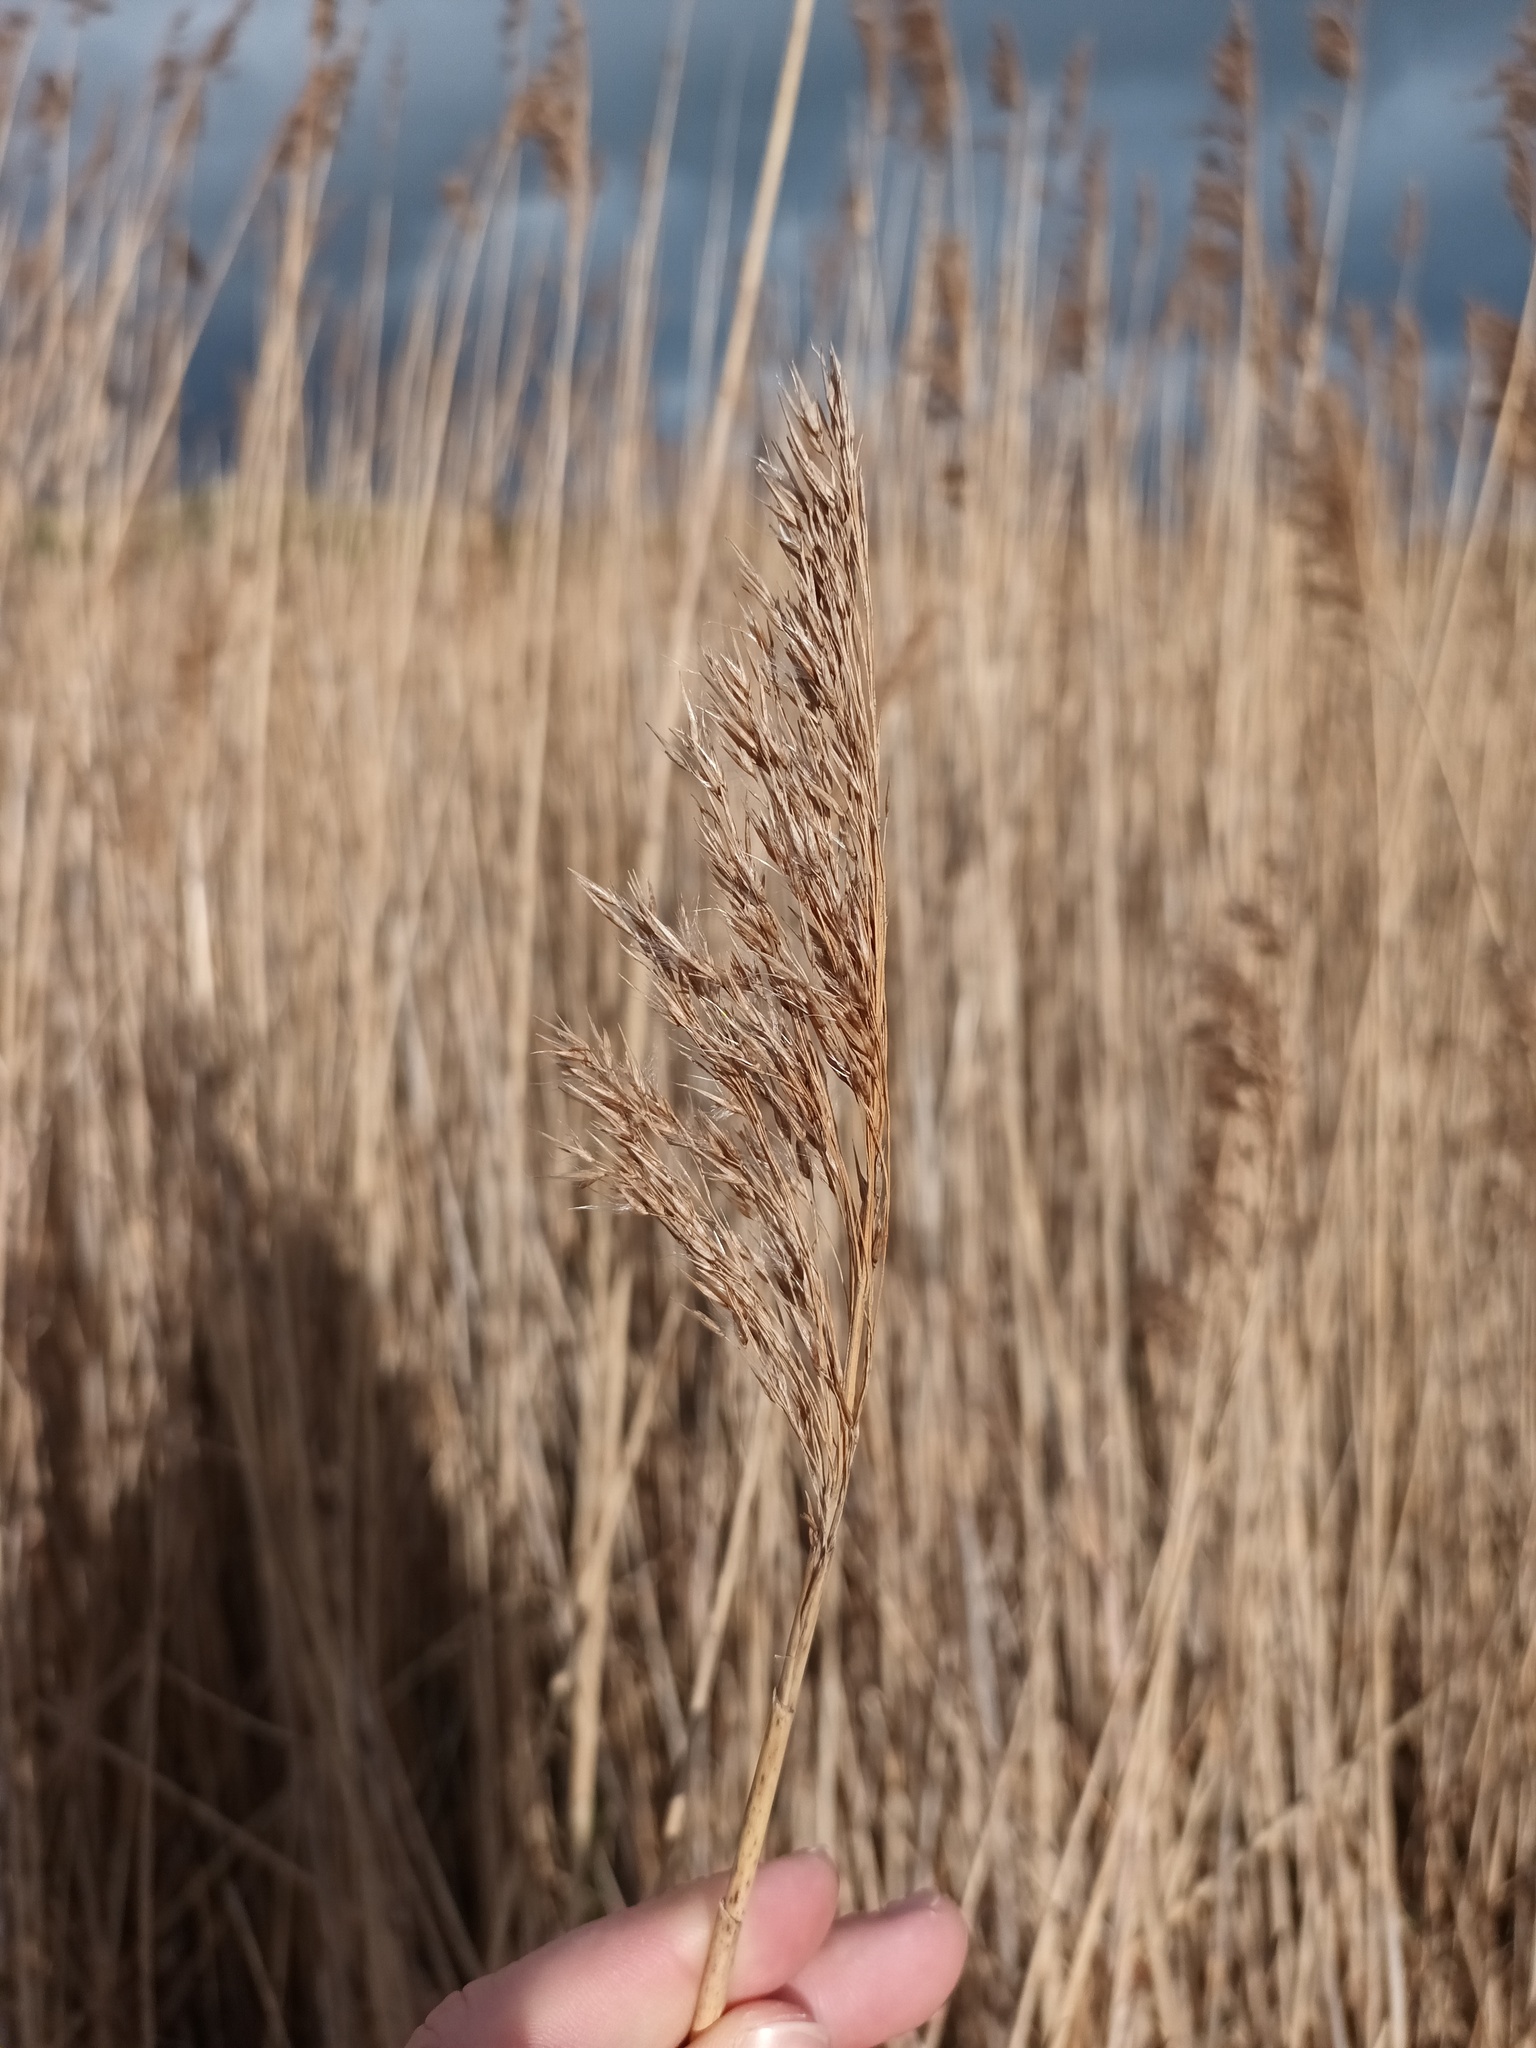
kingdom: Plantae
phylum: Tracheophyta
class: Liliopsida
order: Poales
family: Poaceae
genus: Phragmites
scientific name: Phragmites australis
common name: Common reed
